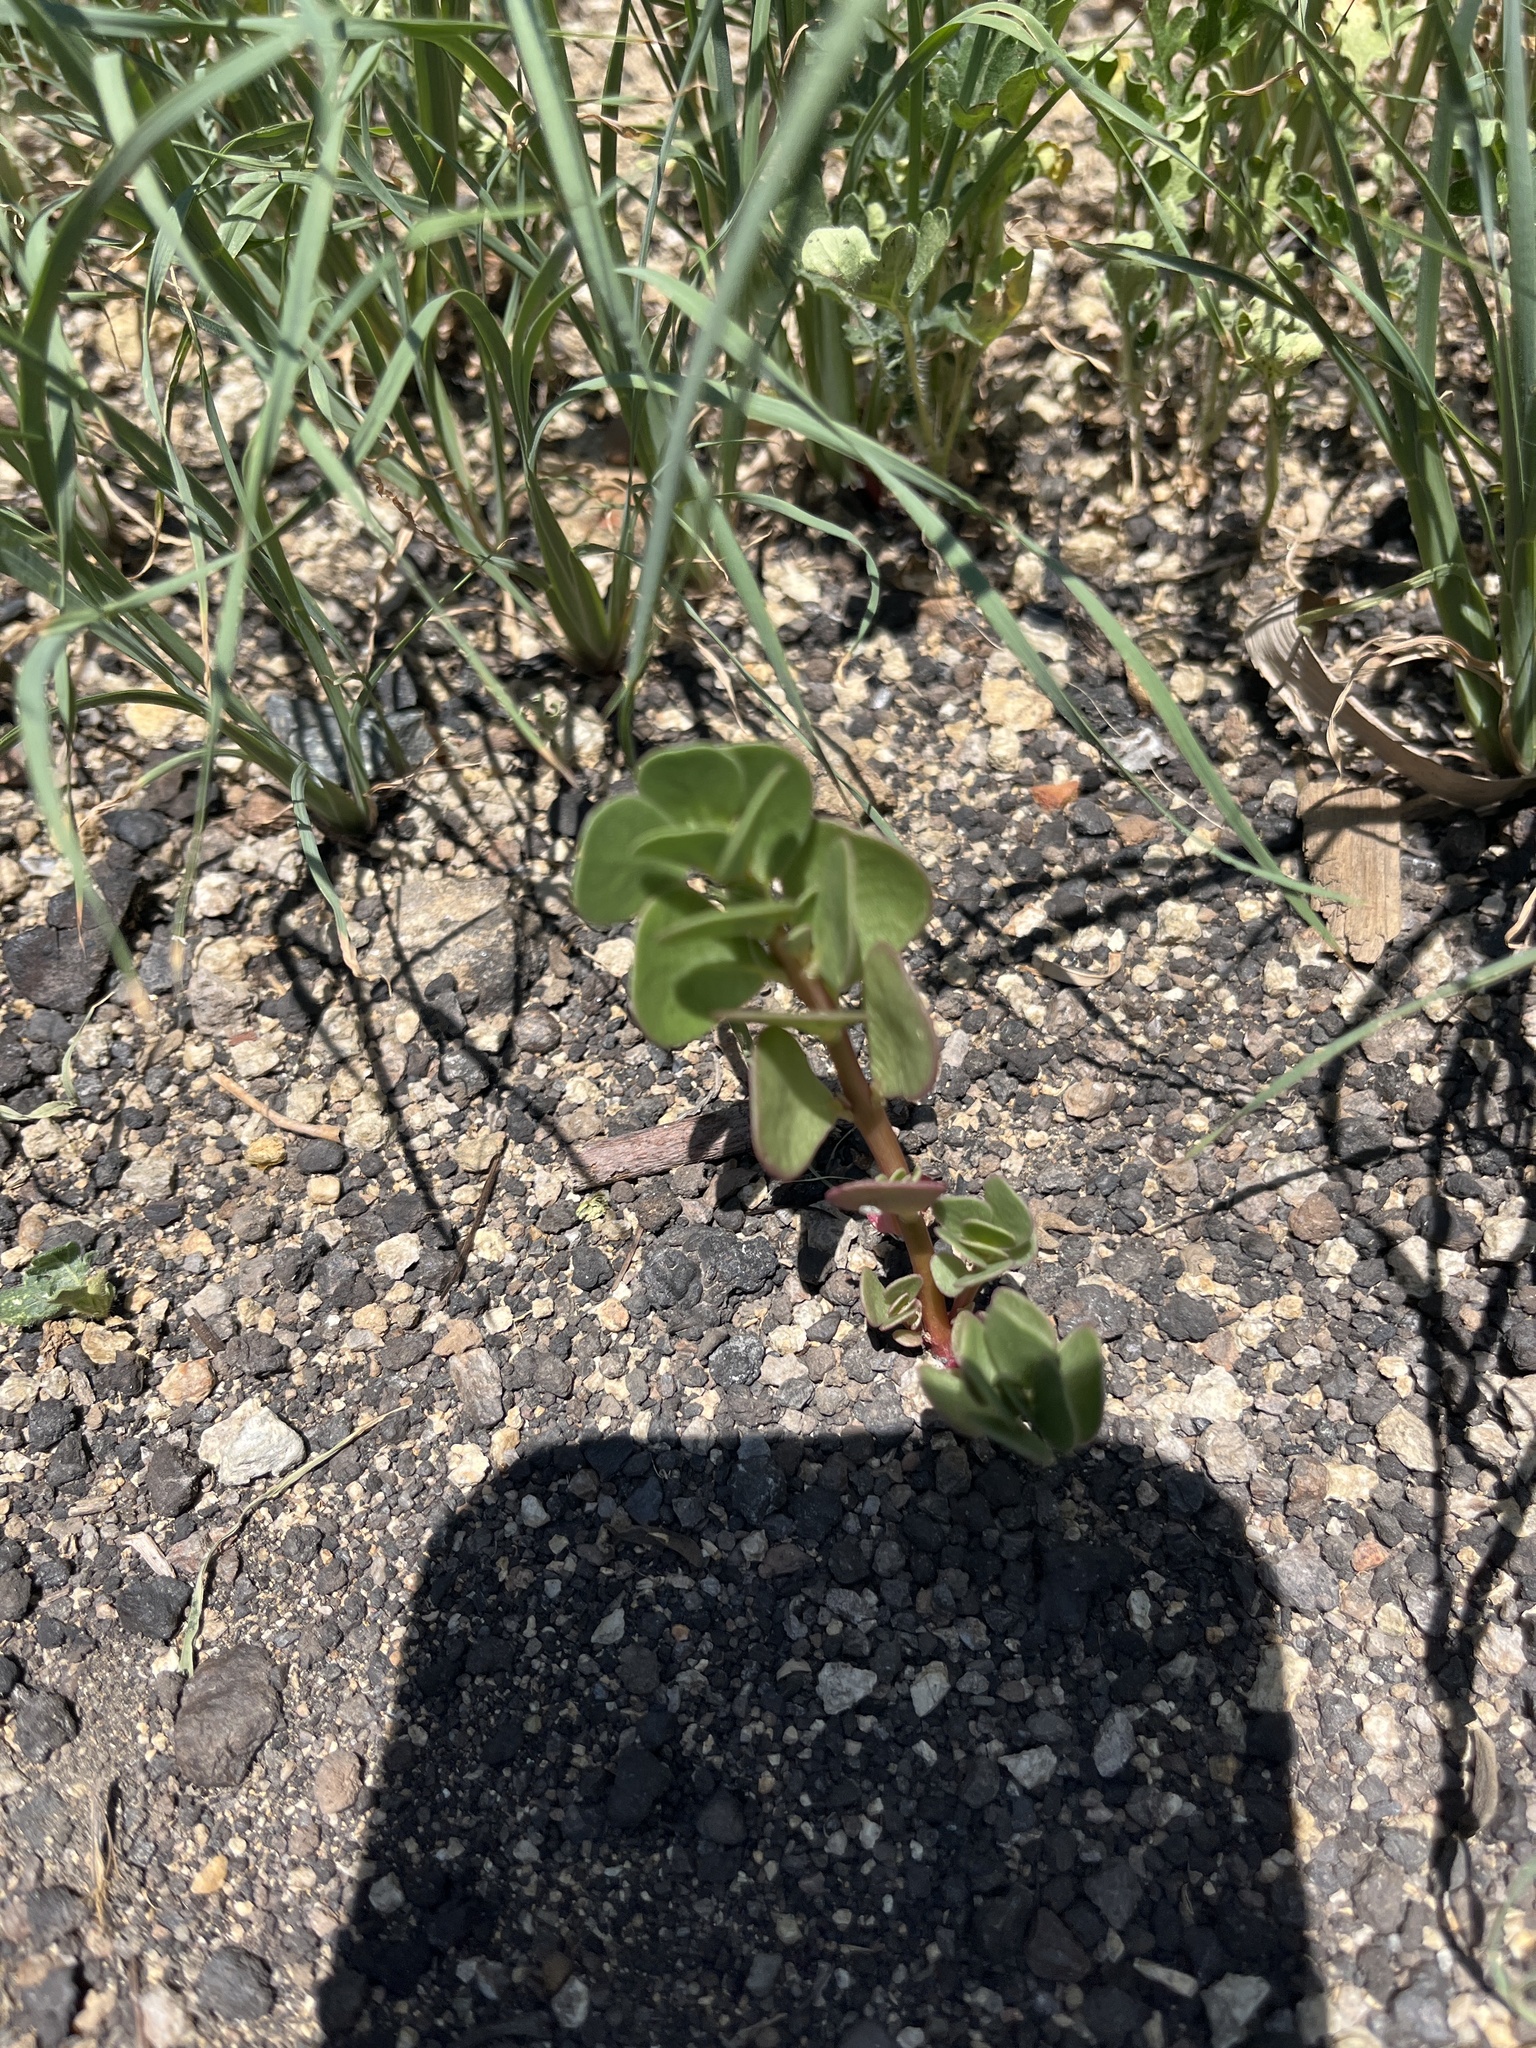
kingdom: Plantae
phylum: Tracheophyta
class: Magnoliopsida
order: Caryophyllales
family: Portulacaceae
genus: Portulaca
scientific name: Portulaca oleracea
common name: Common purslane
